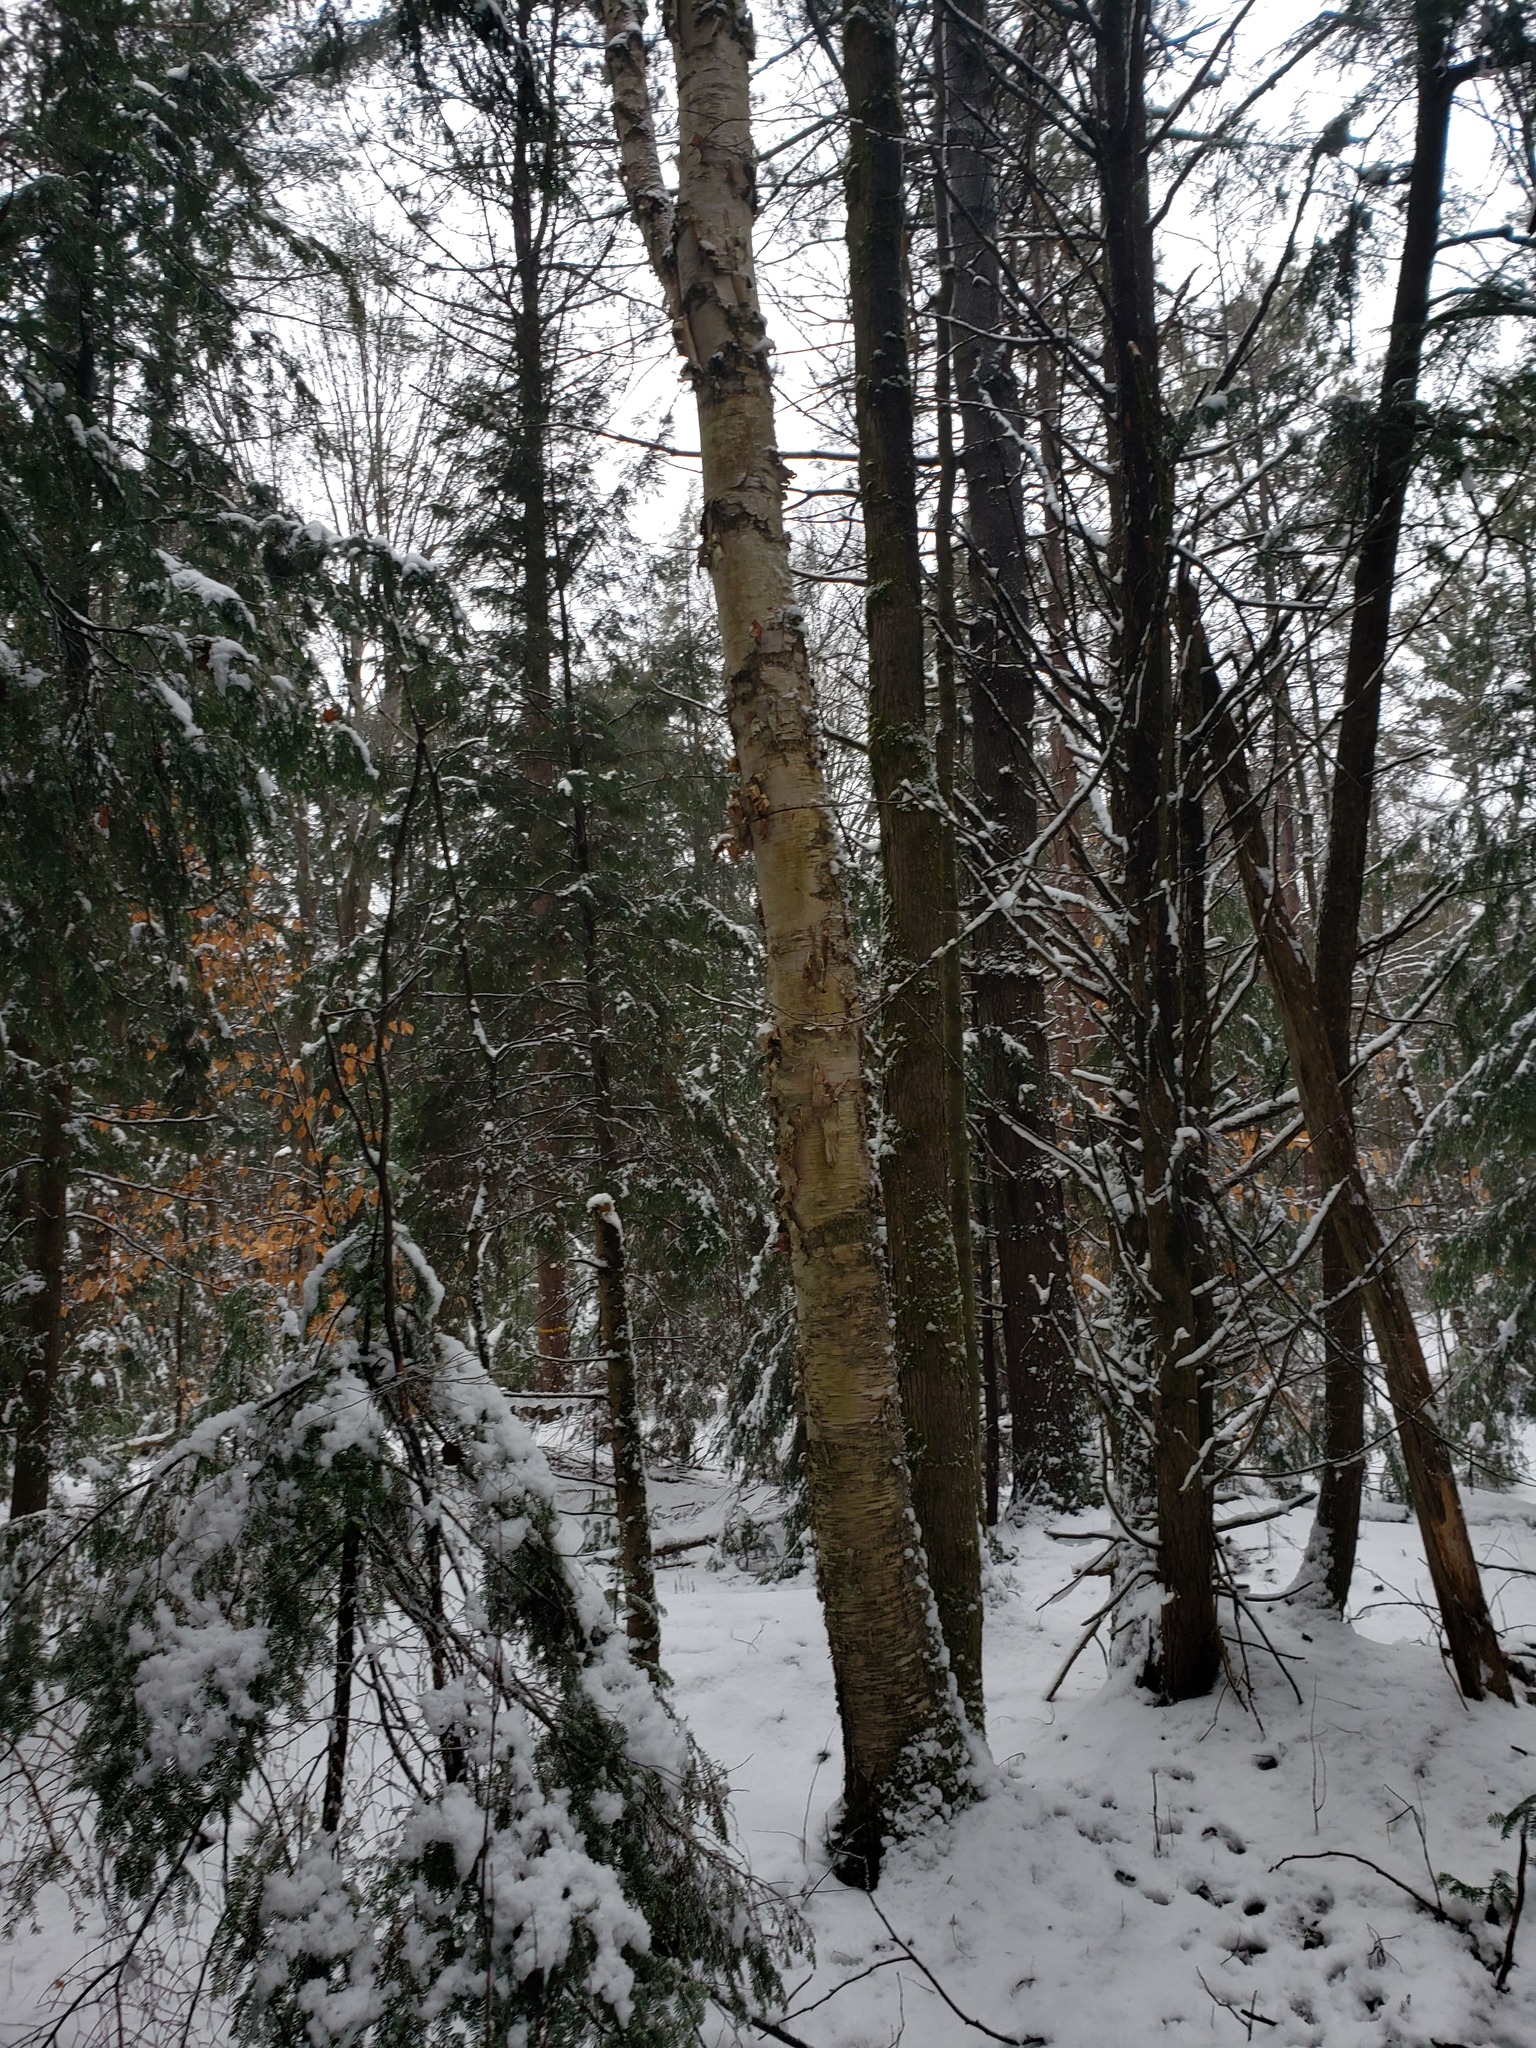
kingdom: Plantae
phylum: Tracheophyta
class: Magnoliopsida
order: Fagales
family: Betulaceae
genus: Betula
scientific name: Betula papyrifera
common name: Paper birch
